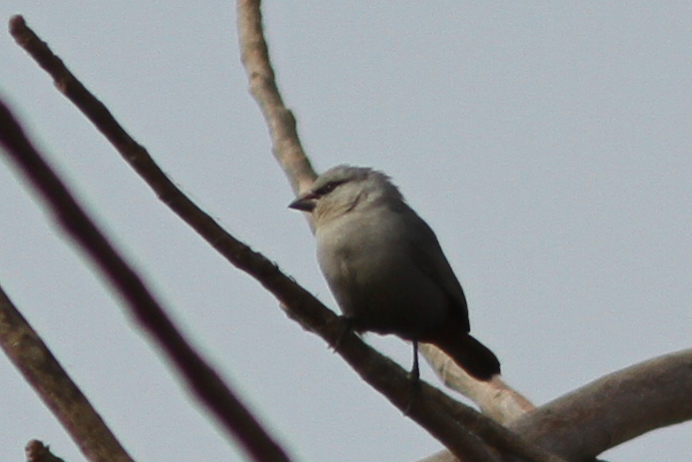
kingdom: Animalia
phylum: Chordata
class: Aves
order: Passeriformes
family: Estrildidae
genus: Estrilda
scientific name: Estrilda caerulescens
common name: Lavender waxbill
